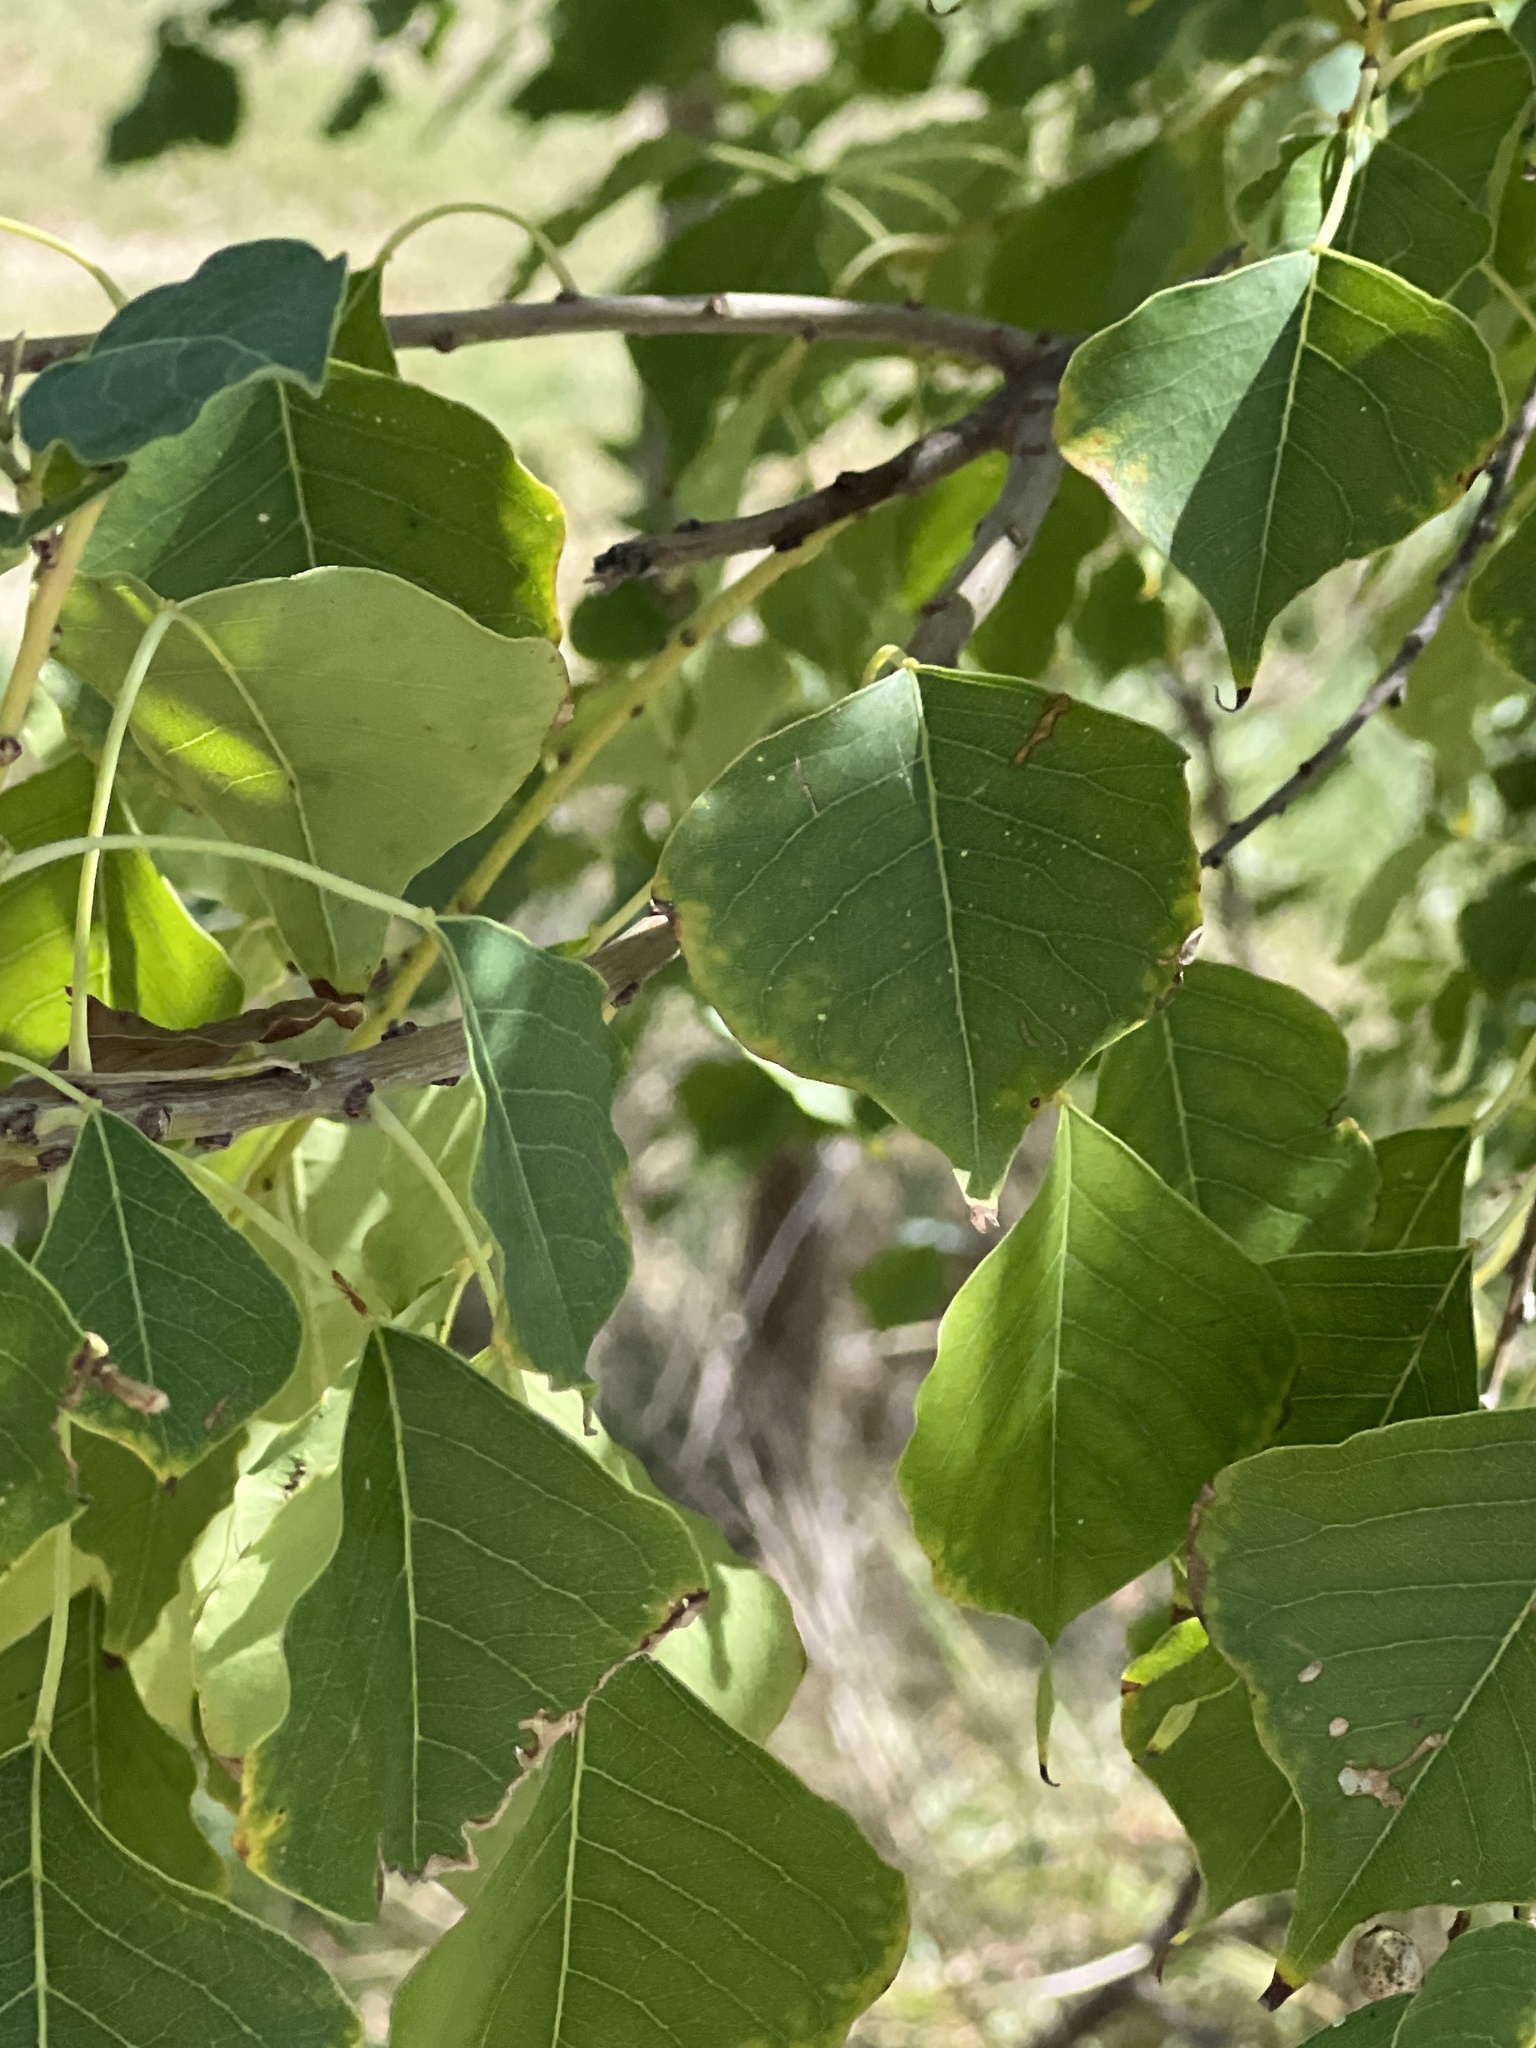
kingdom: Plantae
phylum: Tracheophyta
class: Magnoliopsida
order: Malpighiales
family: Euphorbiaceae
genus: Triadica
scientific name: Triadica sebifera
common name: Chinese tallow
